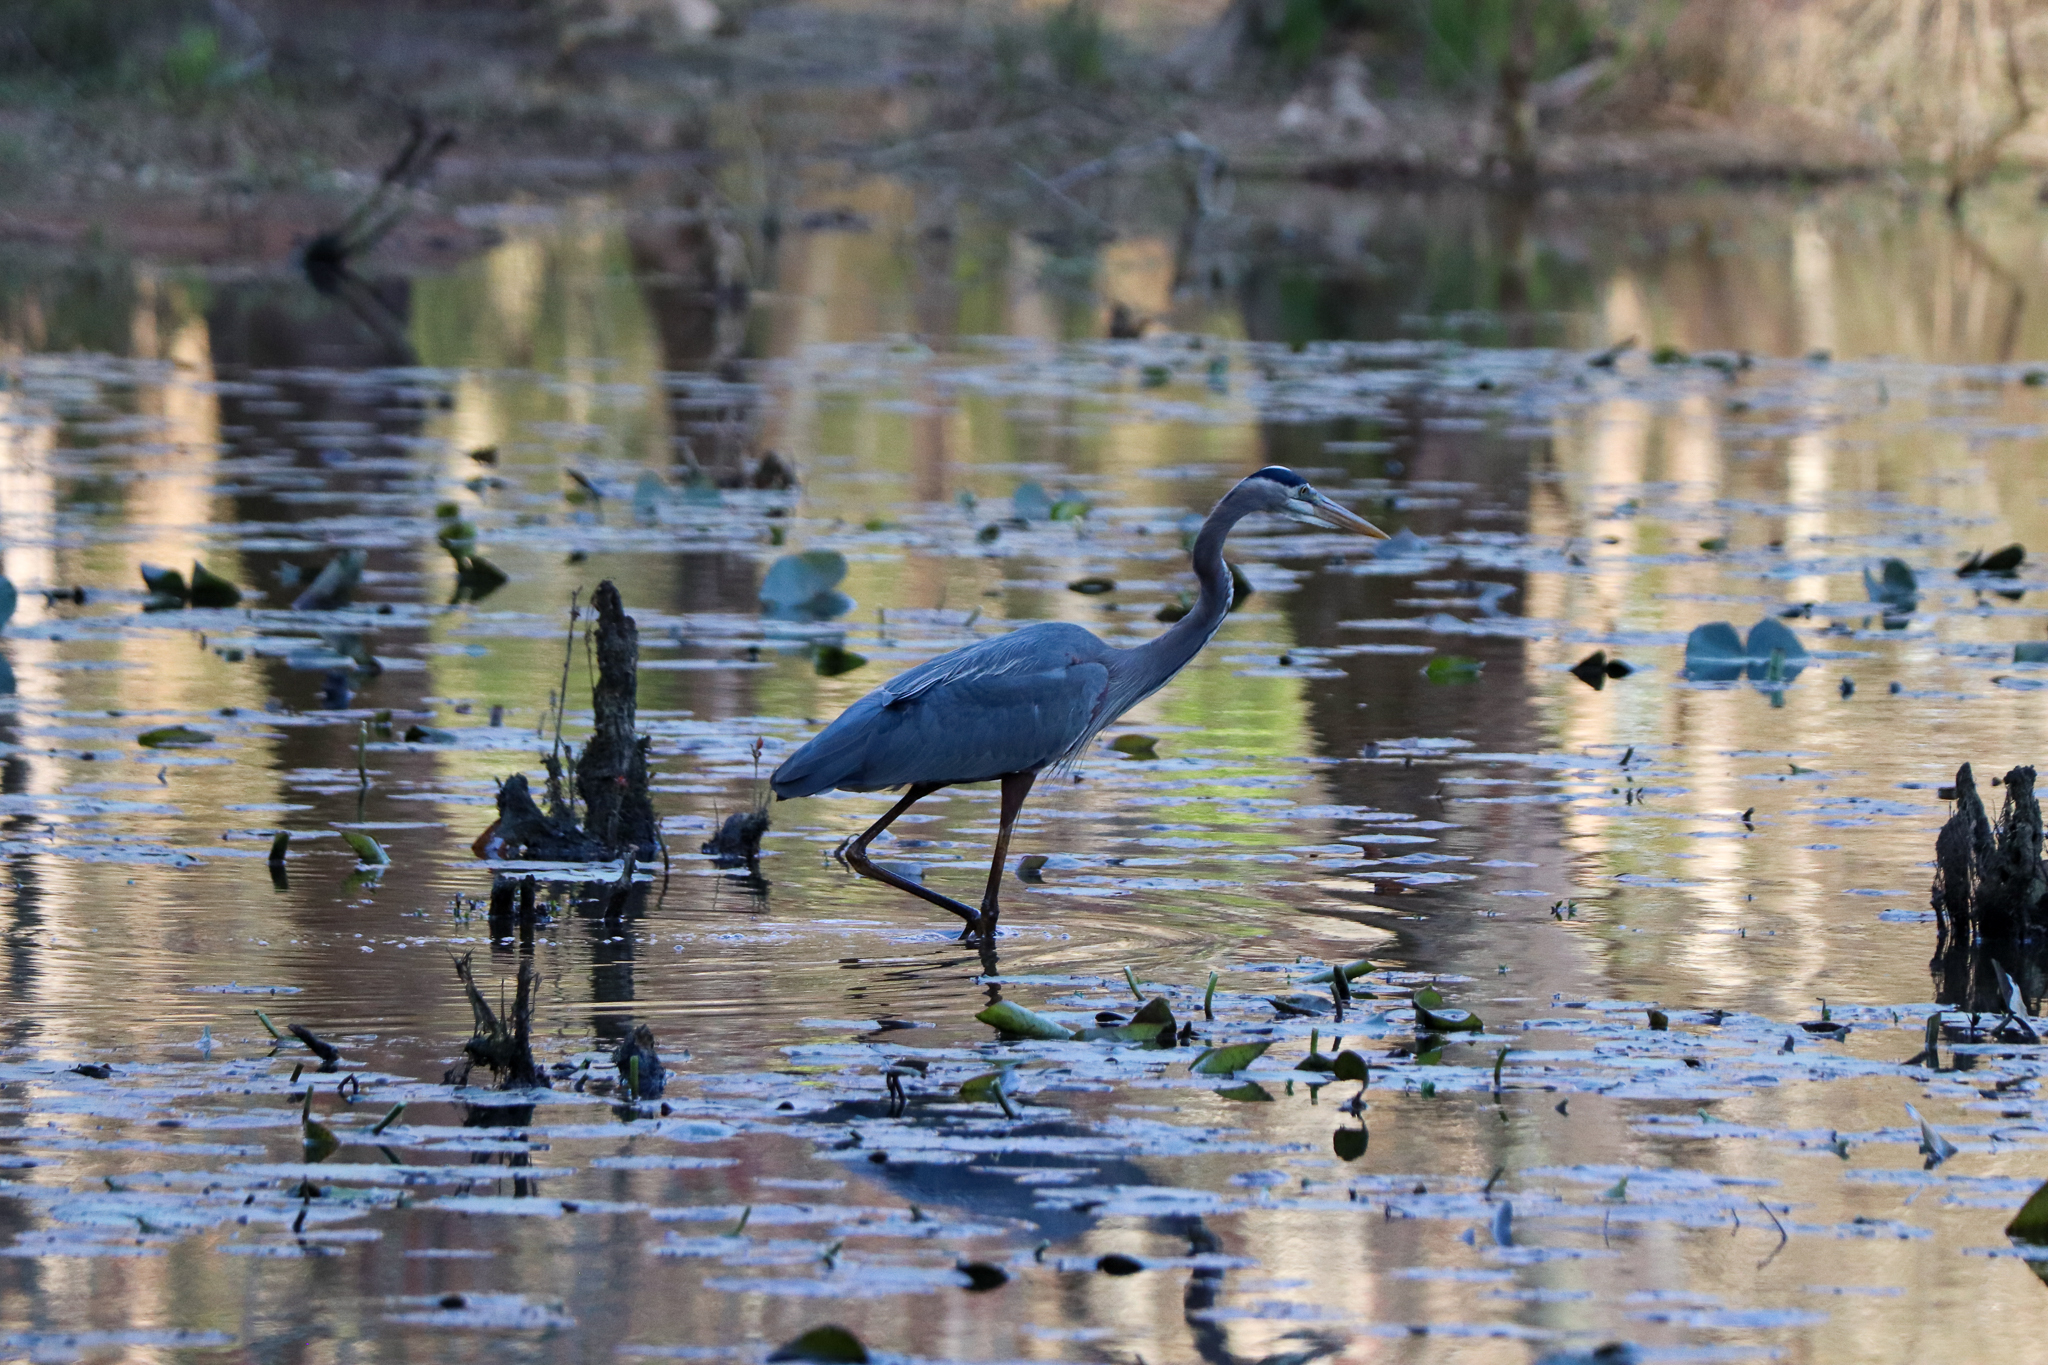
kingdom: Animalia
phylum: Chordata
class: Aves
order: Pelecaniformes
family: Ardeidae
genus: Ardea
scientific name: Ardea herodias
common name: Great blue heron
